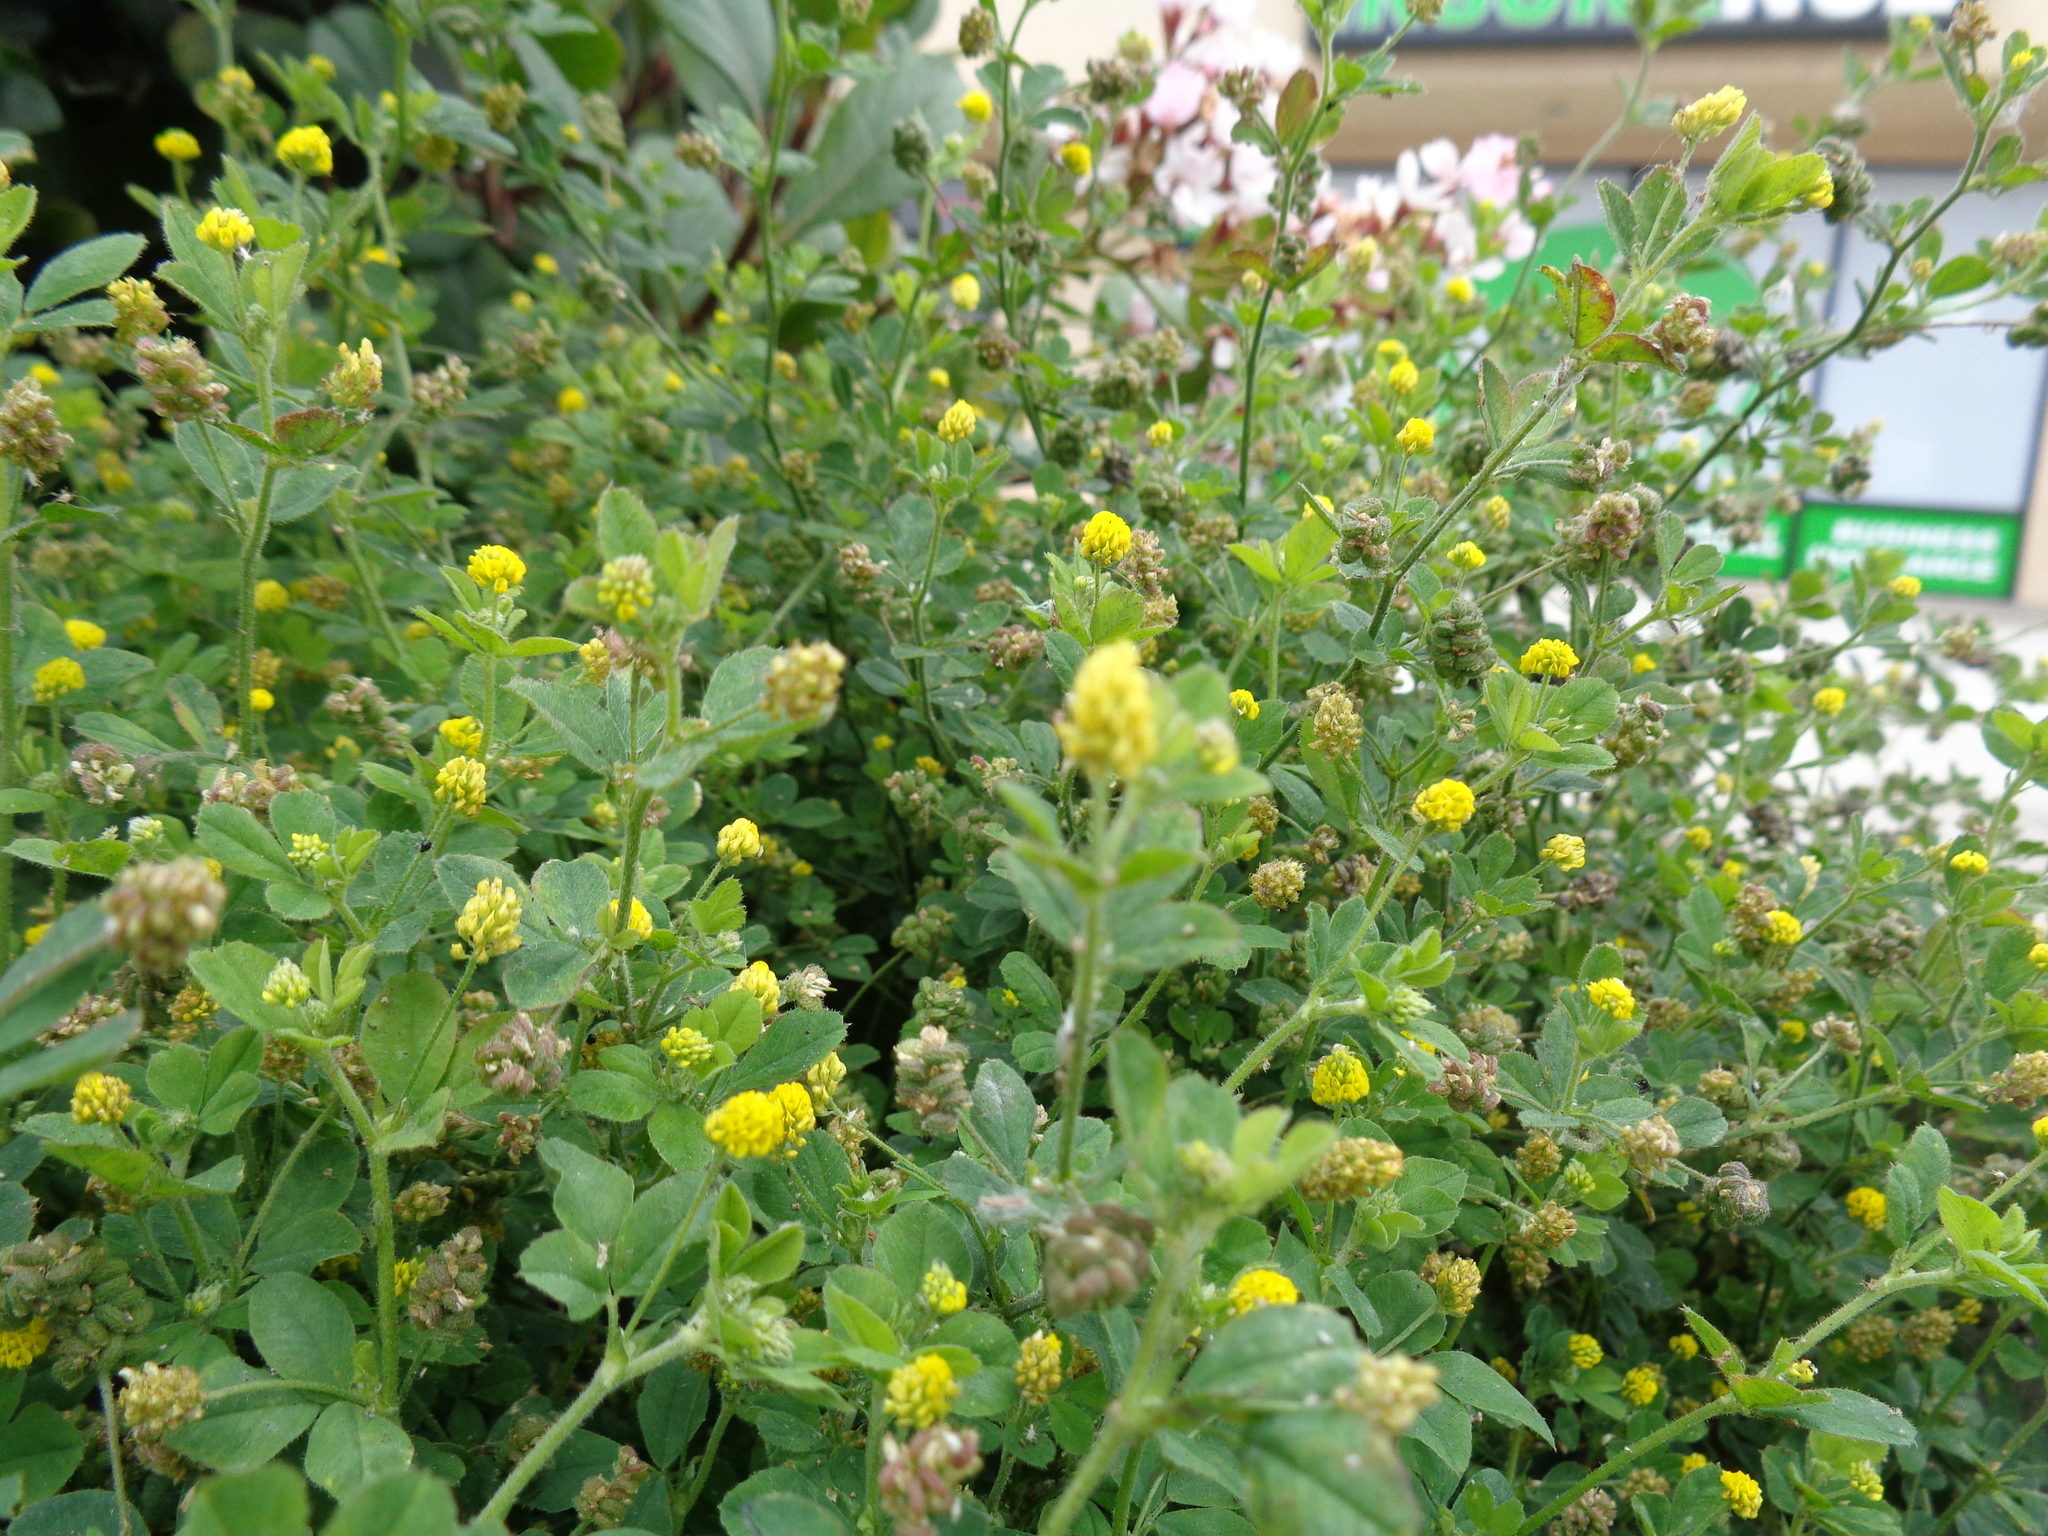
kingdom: Plantae
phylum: Tracheophyta
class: Magnoliopsida
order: Fabales
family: Fabaceae
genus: Medicago
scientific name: Medicago lupulina
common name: Black medick
